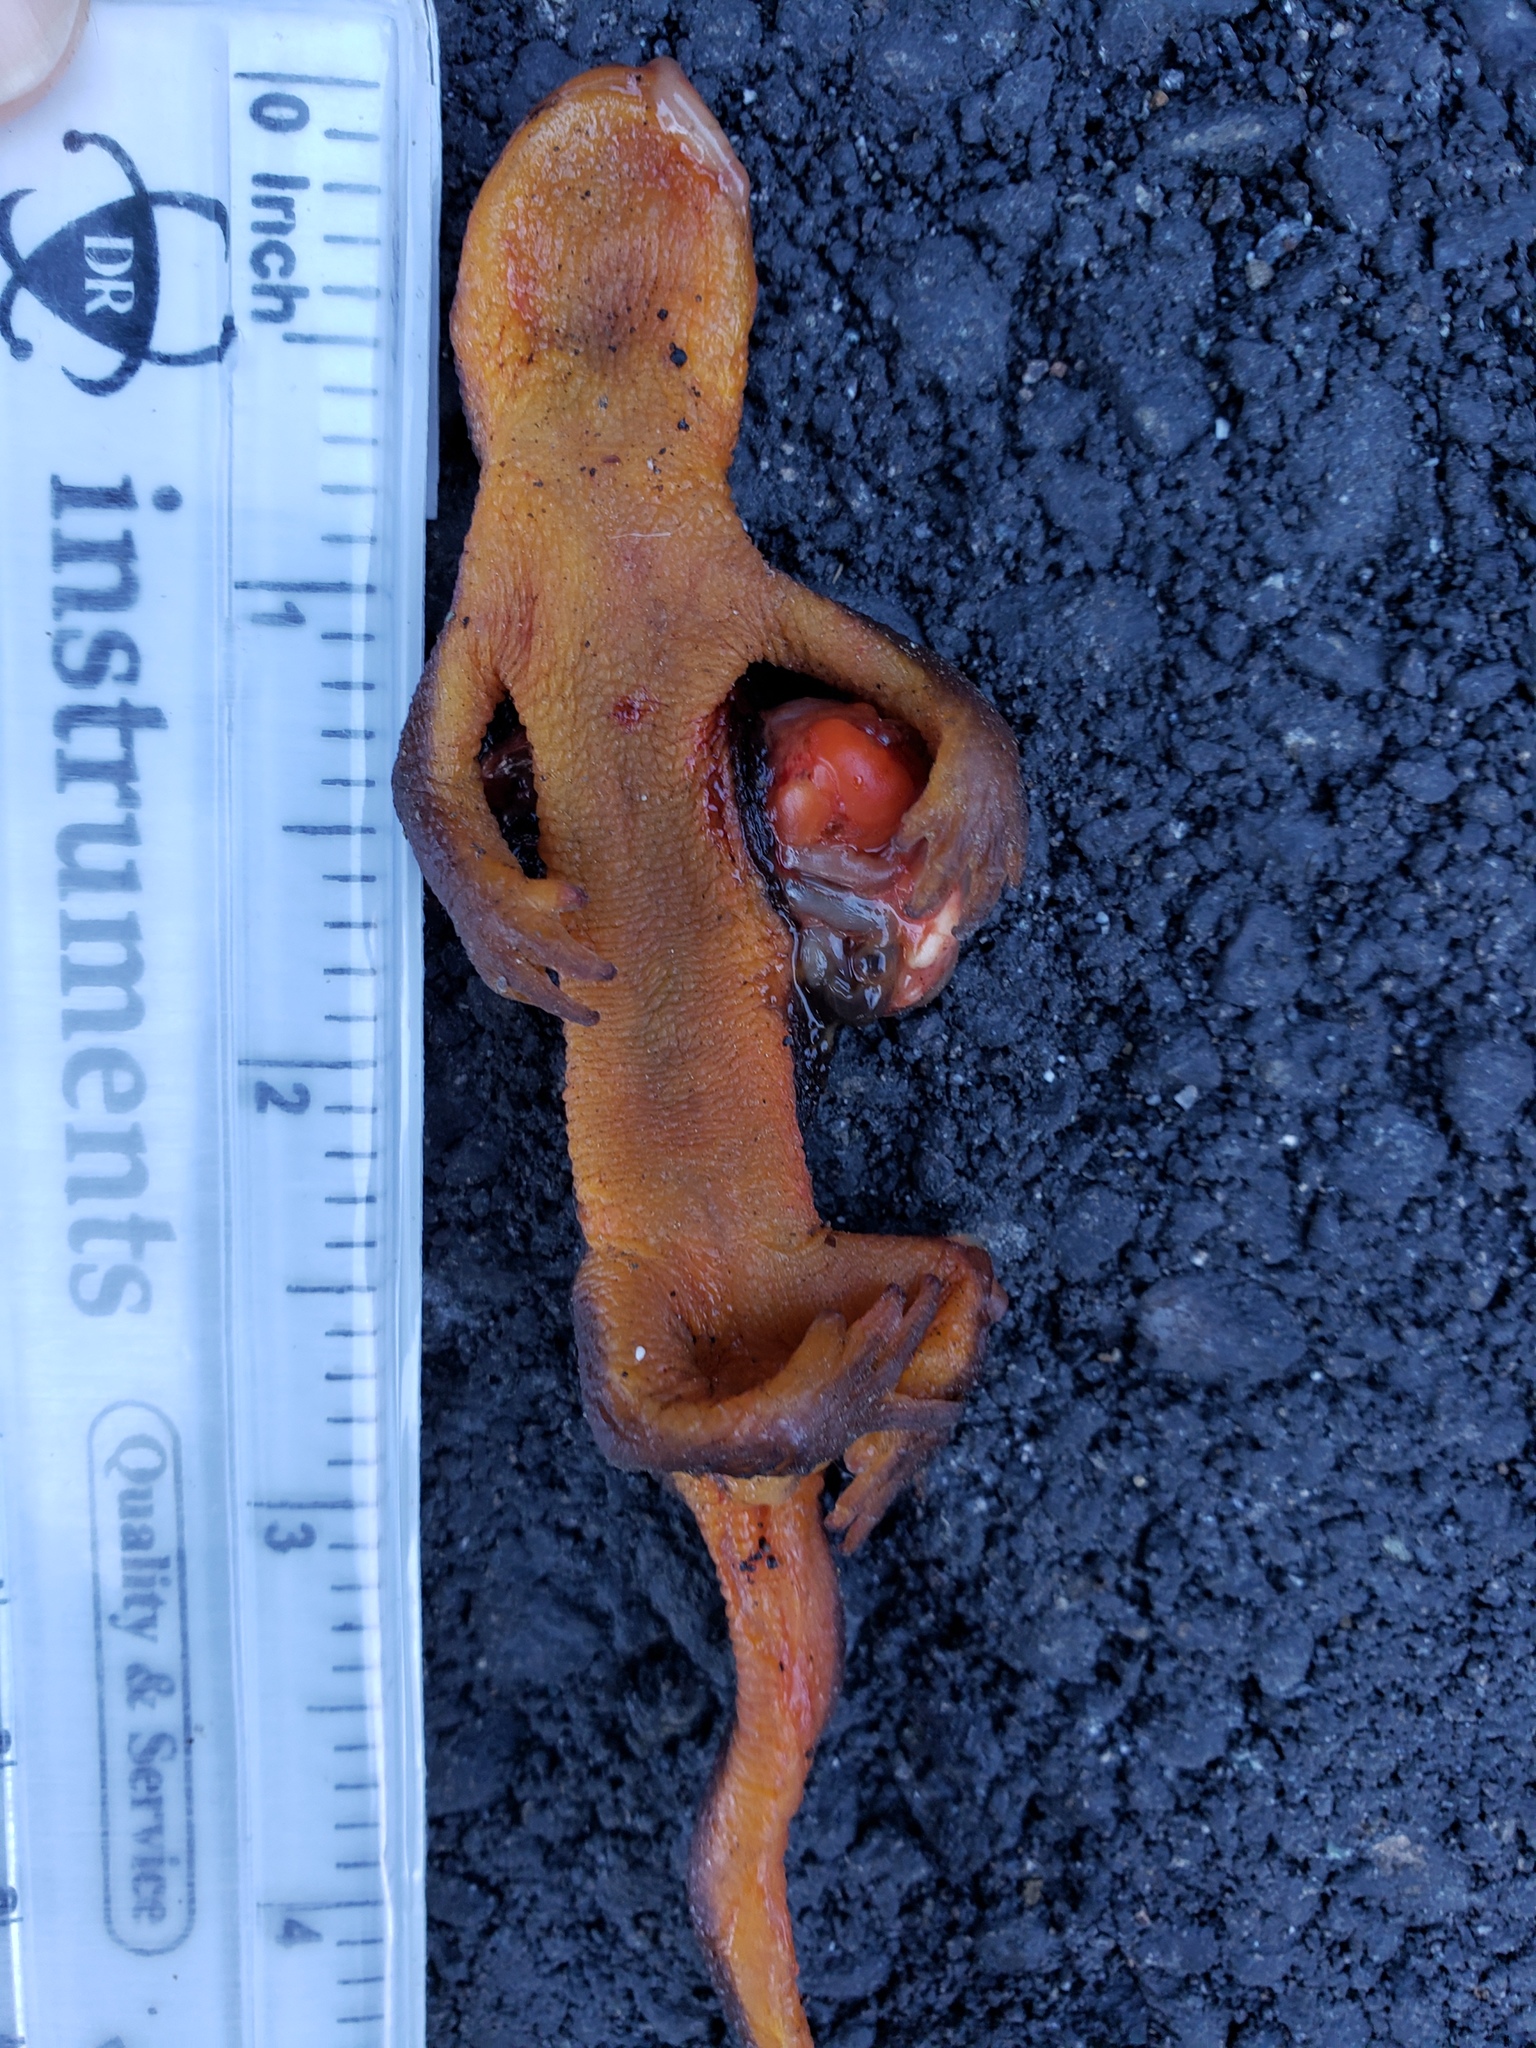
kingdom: Animalia
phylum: Chordata
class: Amphibia
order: Caudata
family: Salamandridae
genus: Taricha
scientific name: Taricha
